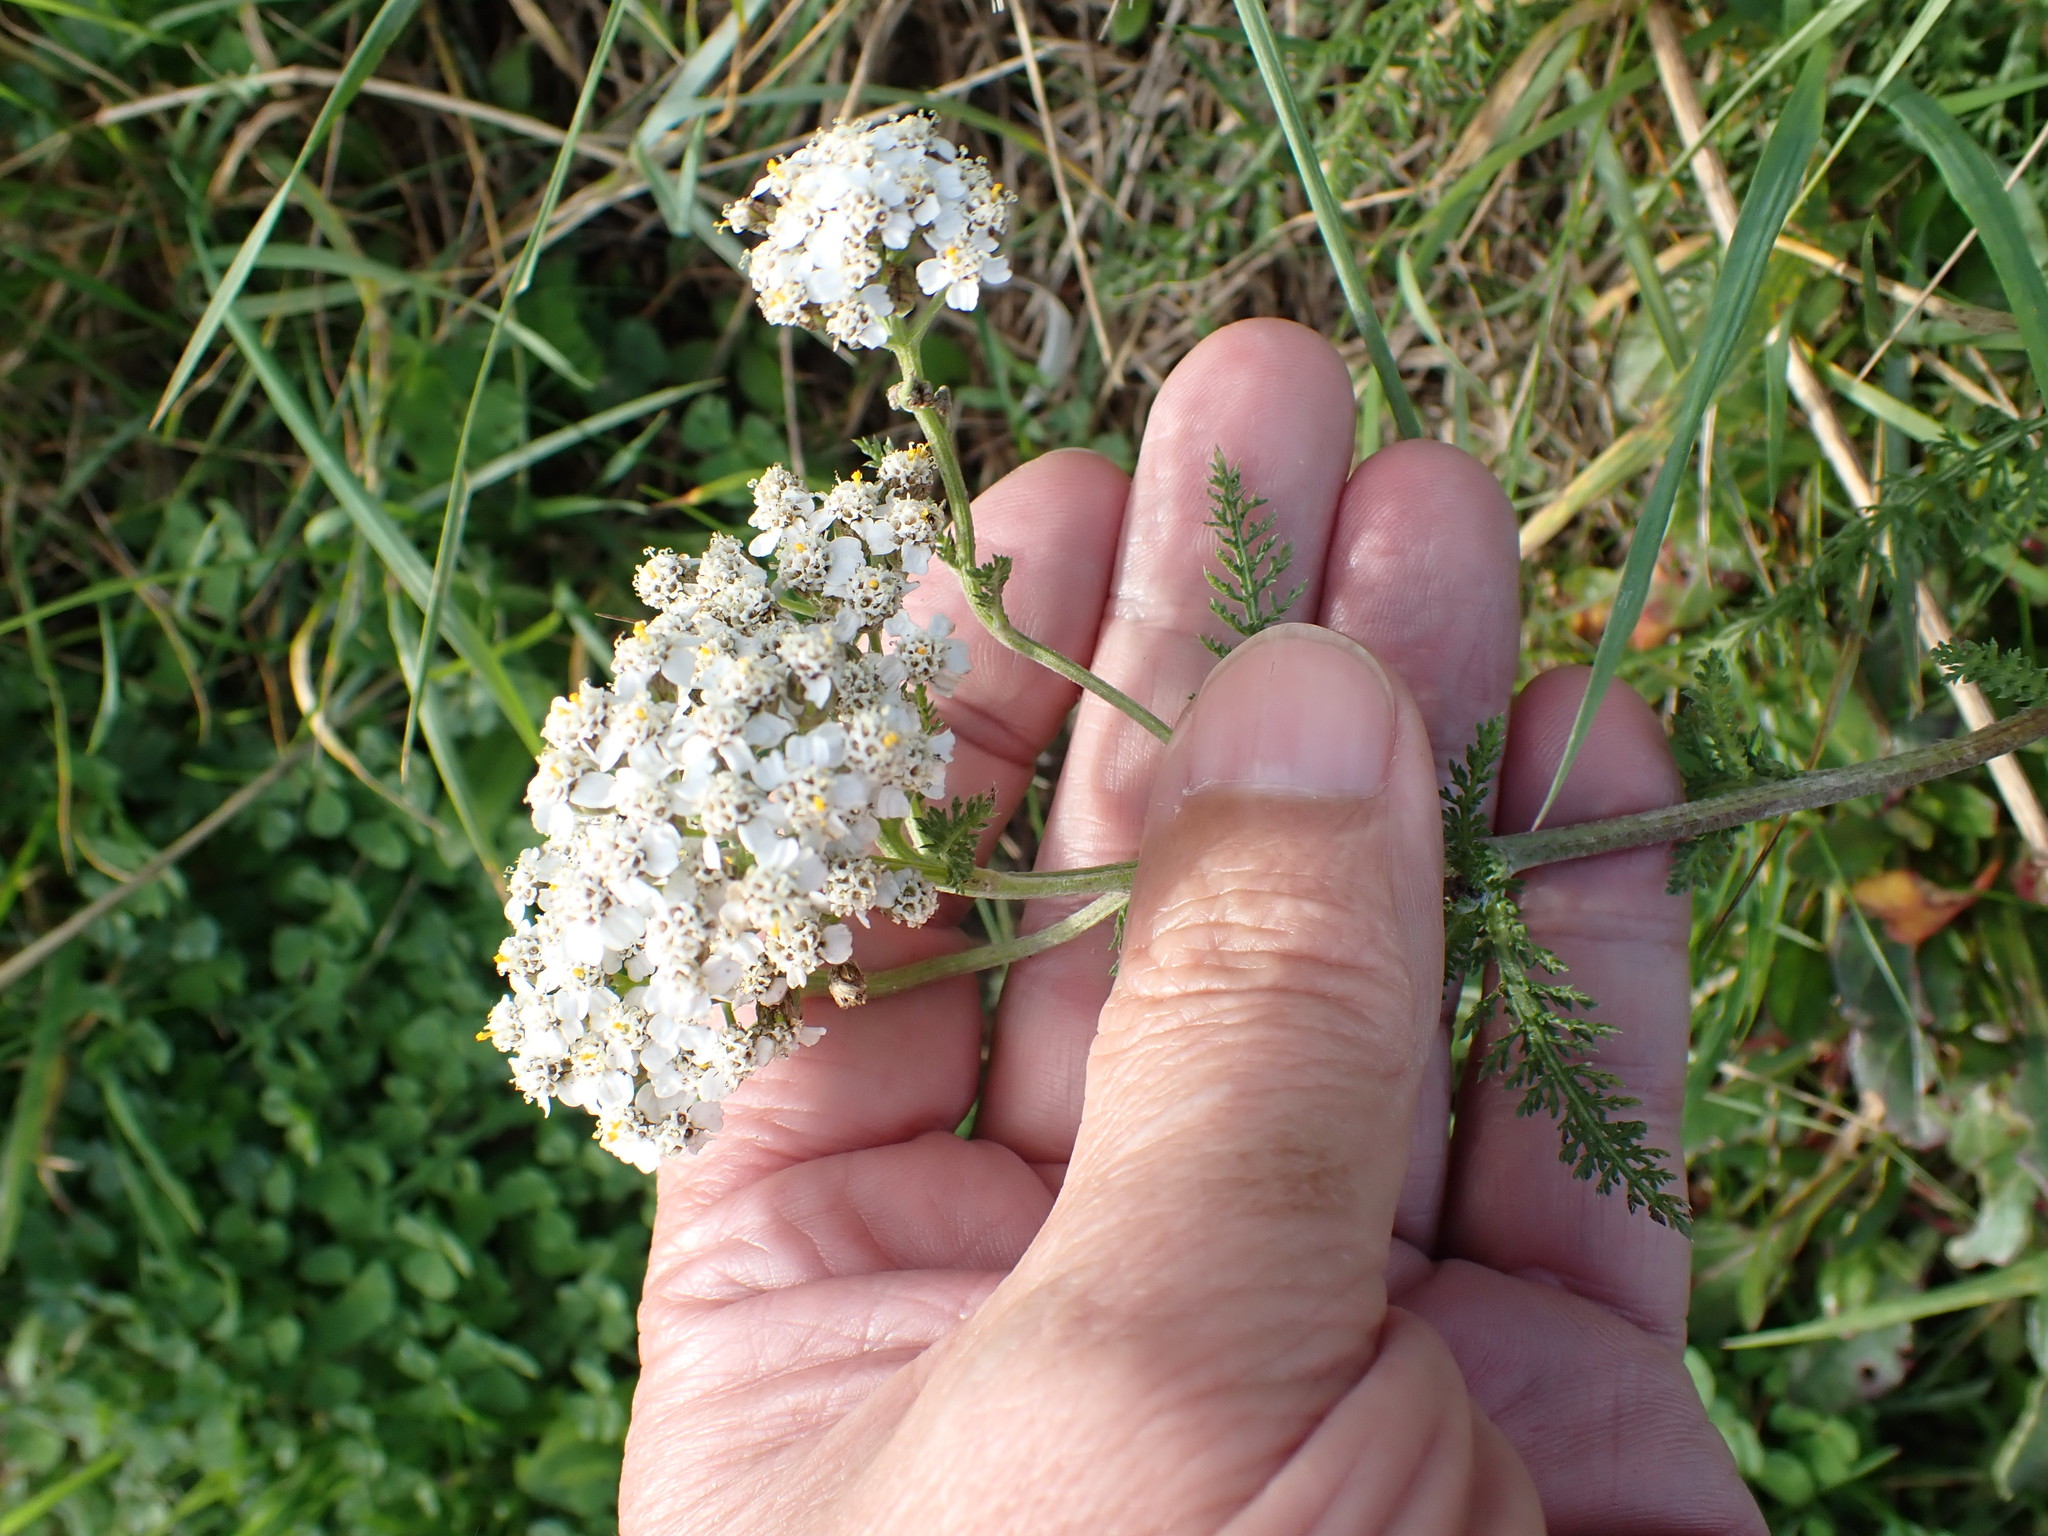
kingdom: Plantae
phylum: Tracheophyta
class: Magnoliopsida
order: Asterales
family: Asteraceae
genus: Achillea
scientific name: Achillea millefolium
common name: Yarrow
